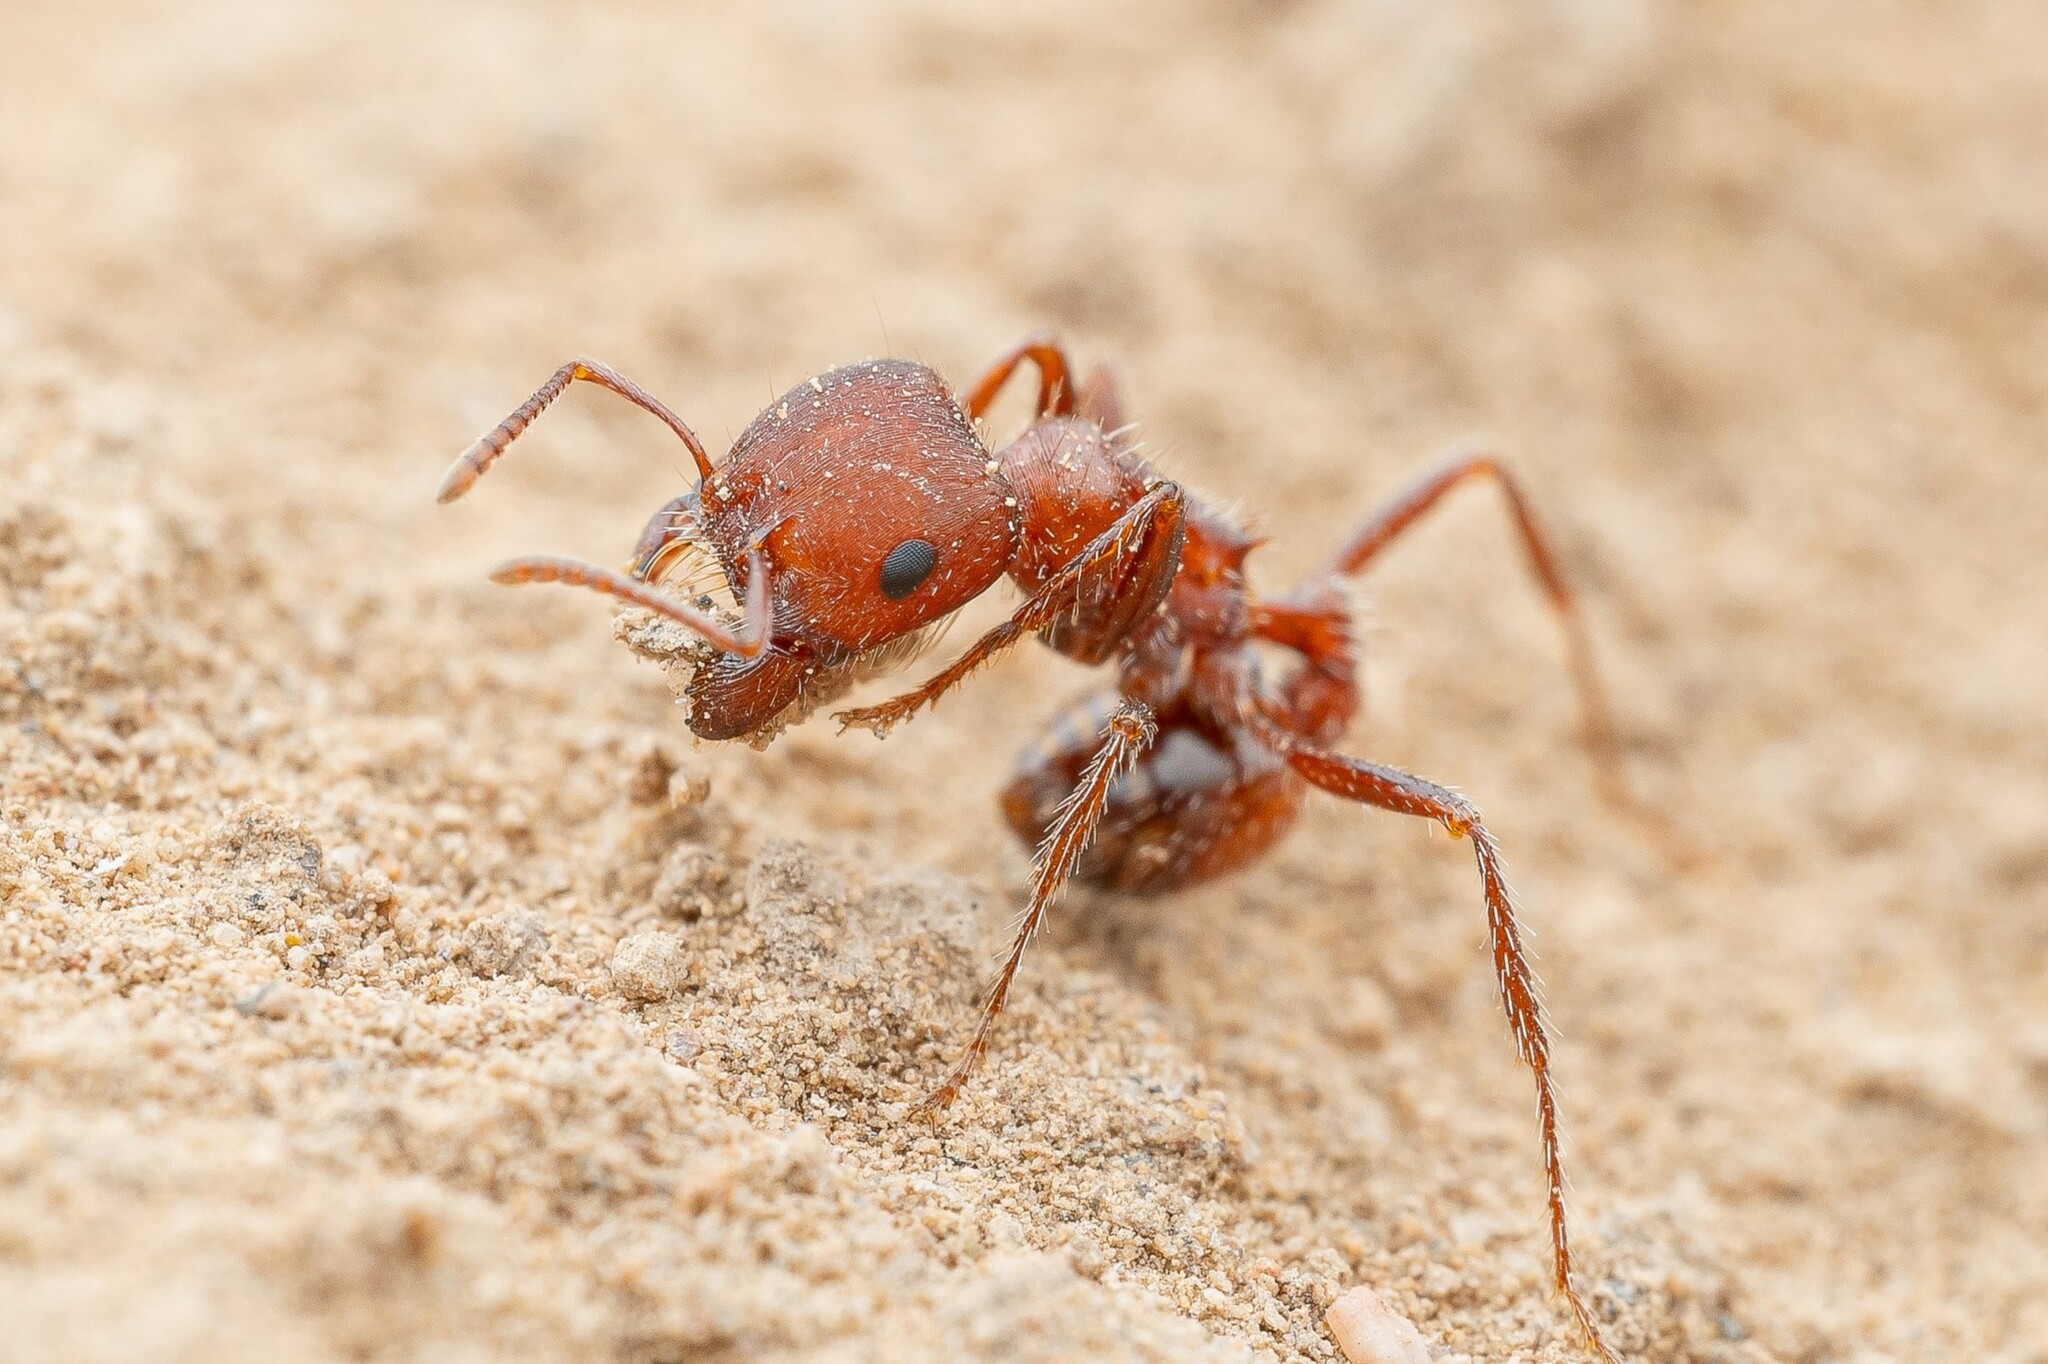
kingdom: Animalia
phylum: Arthropoda
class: Insecta
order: Hymenoptera
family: Formicidae
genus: Pogonomyrmex
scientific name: Pogonomyrmex desertorum
